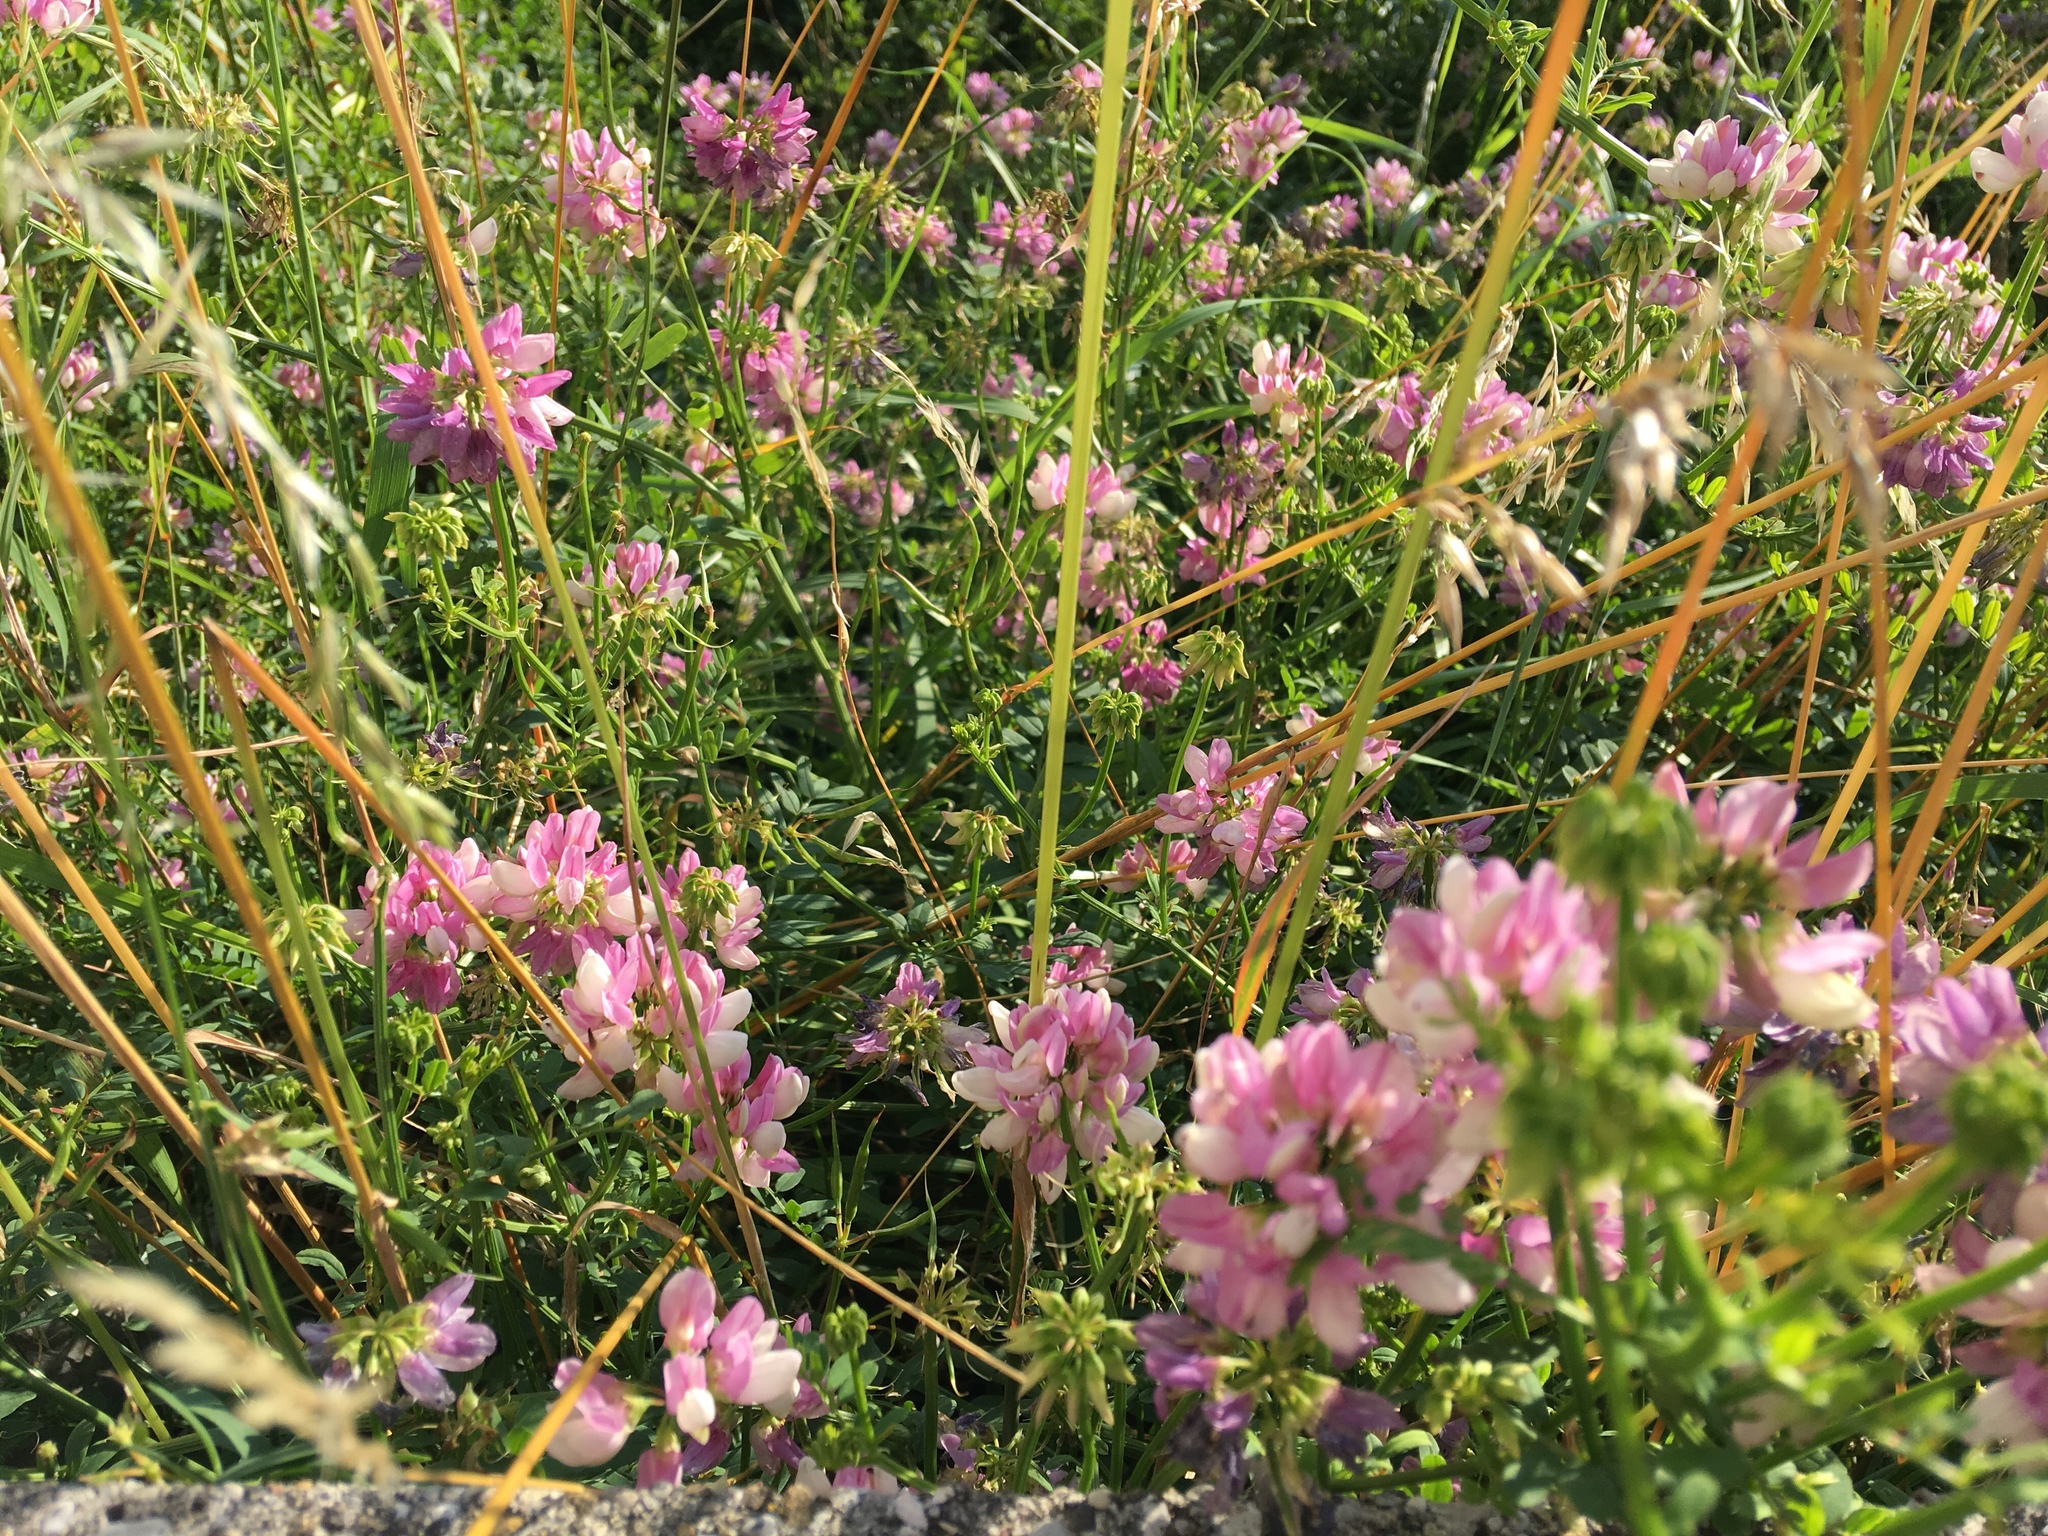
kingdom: Plantae
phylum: Tracheophyta
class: Magnoliopsida
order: Fabales
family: Fabaceae
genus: Coronilla
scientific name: Coronilla varia
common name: Crownvetch
